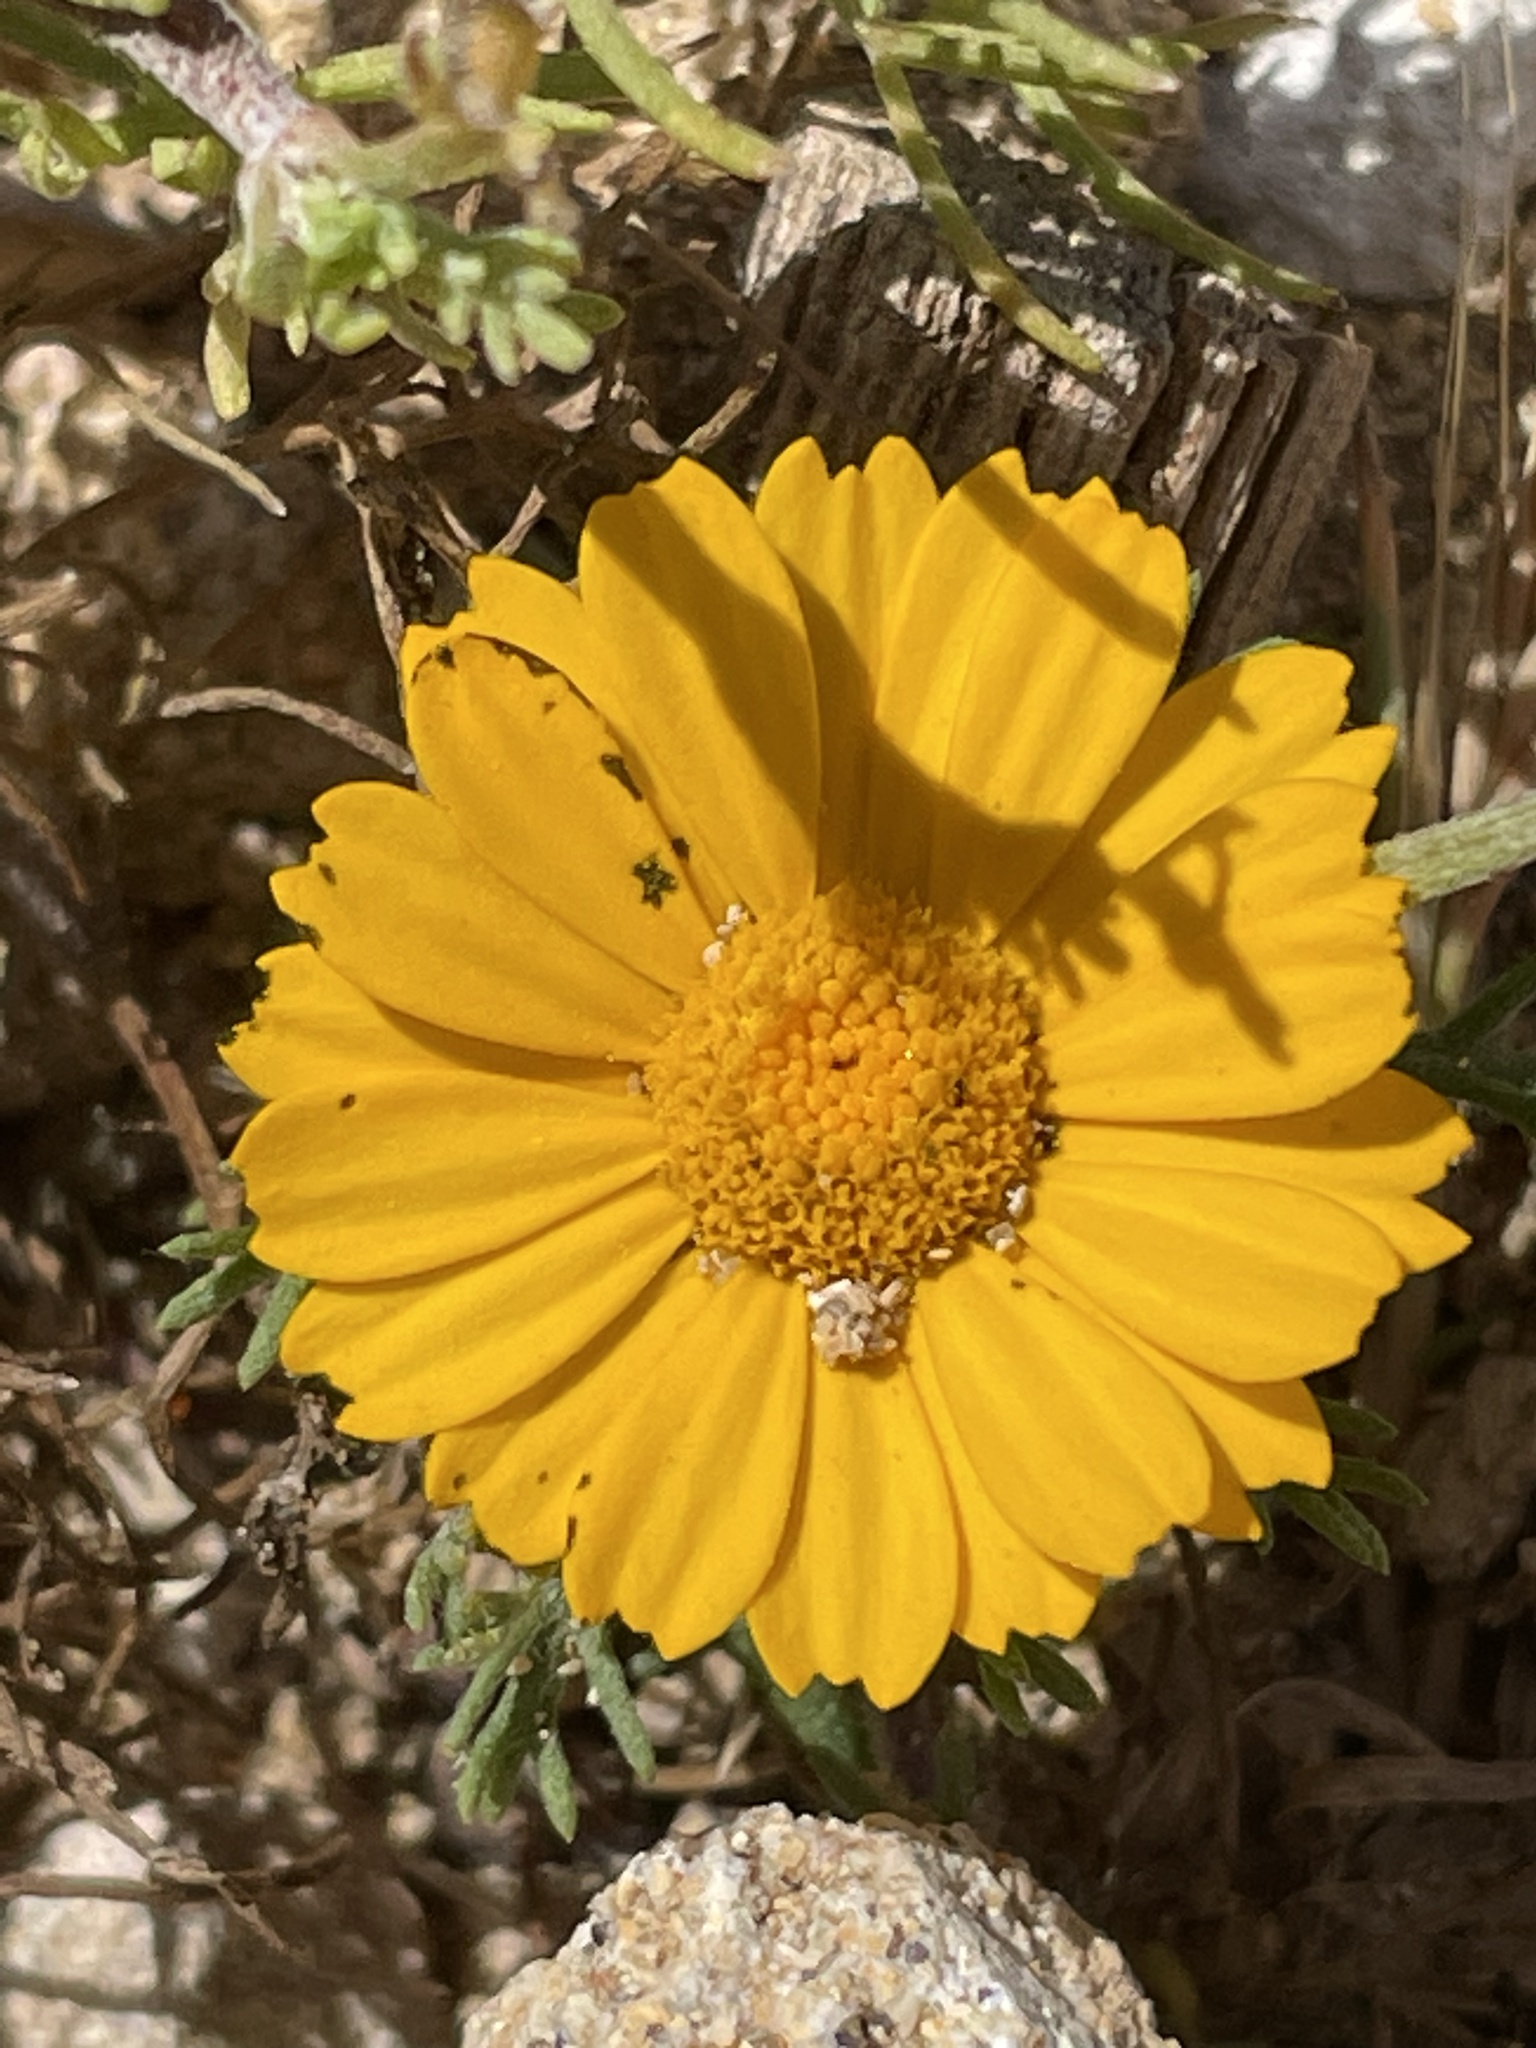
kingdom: Plantae
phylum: Tracheophyta
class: Magnoliopsida
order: Asterales
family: Asteraceae
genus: Cladanthus
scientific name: Cladanthus arabicus
